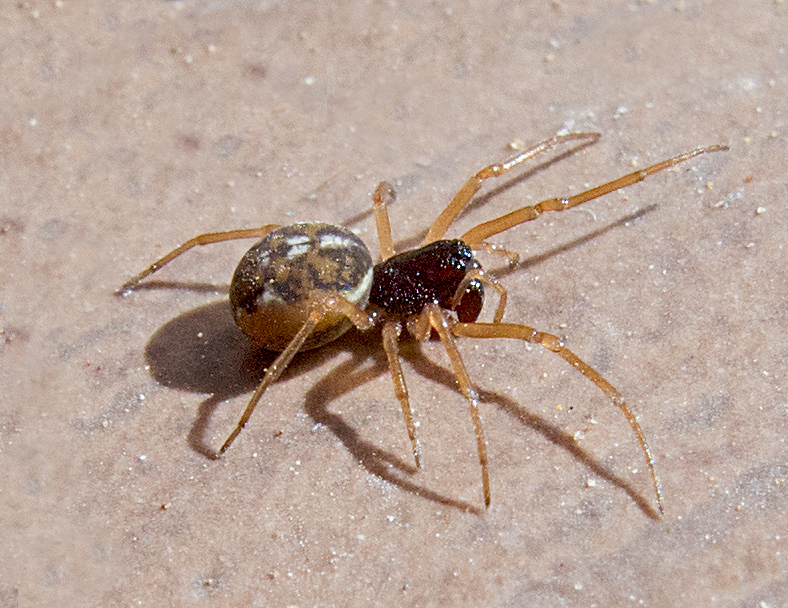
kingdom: Animalia
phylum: Arthropoda
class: Arachnida
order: Araneae
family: Tetragnathidae
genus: Pachygnatha
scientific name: Pachygnatha degeeri
